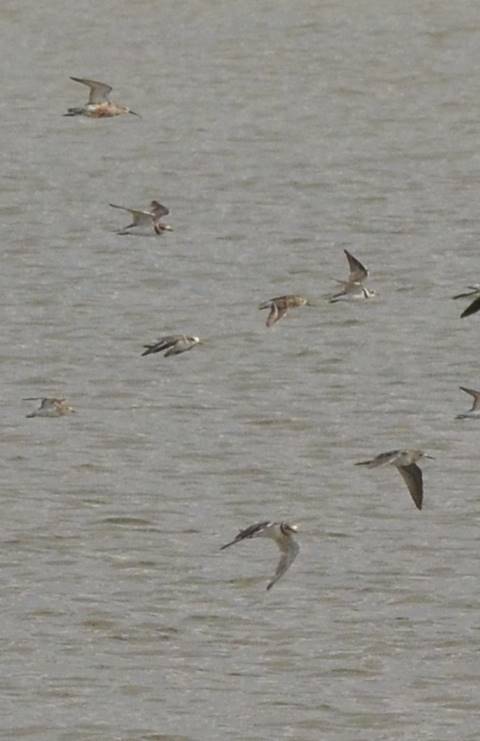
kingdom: Animalia
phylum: Chordata
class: Aves
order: Charadriiformes
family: Charadriidae
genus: Charadrius
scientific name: Charadrius hiaticula
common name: Common ringed plover
